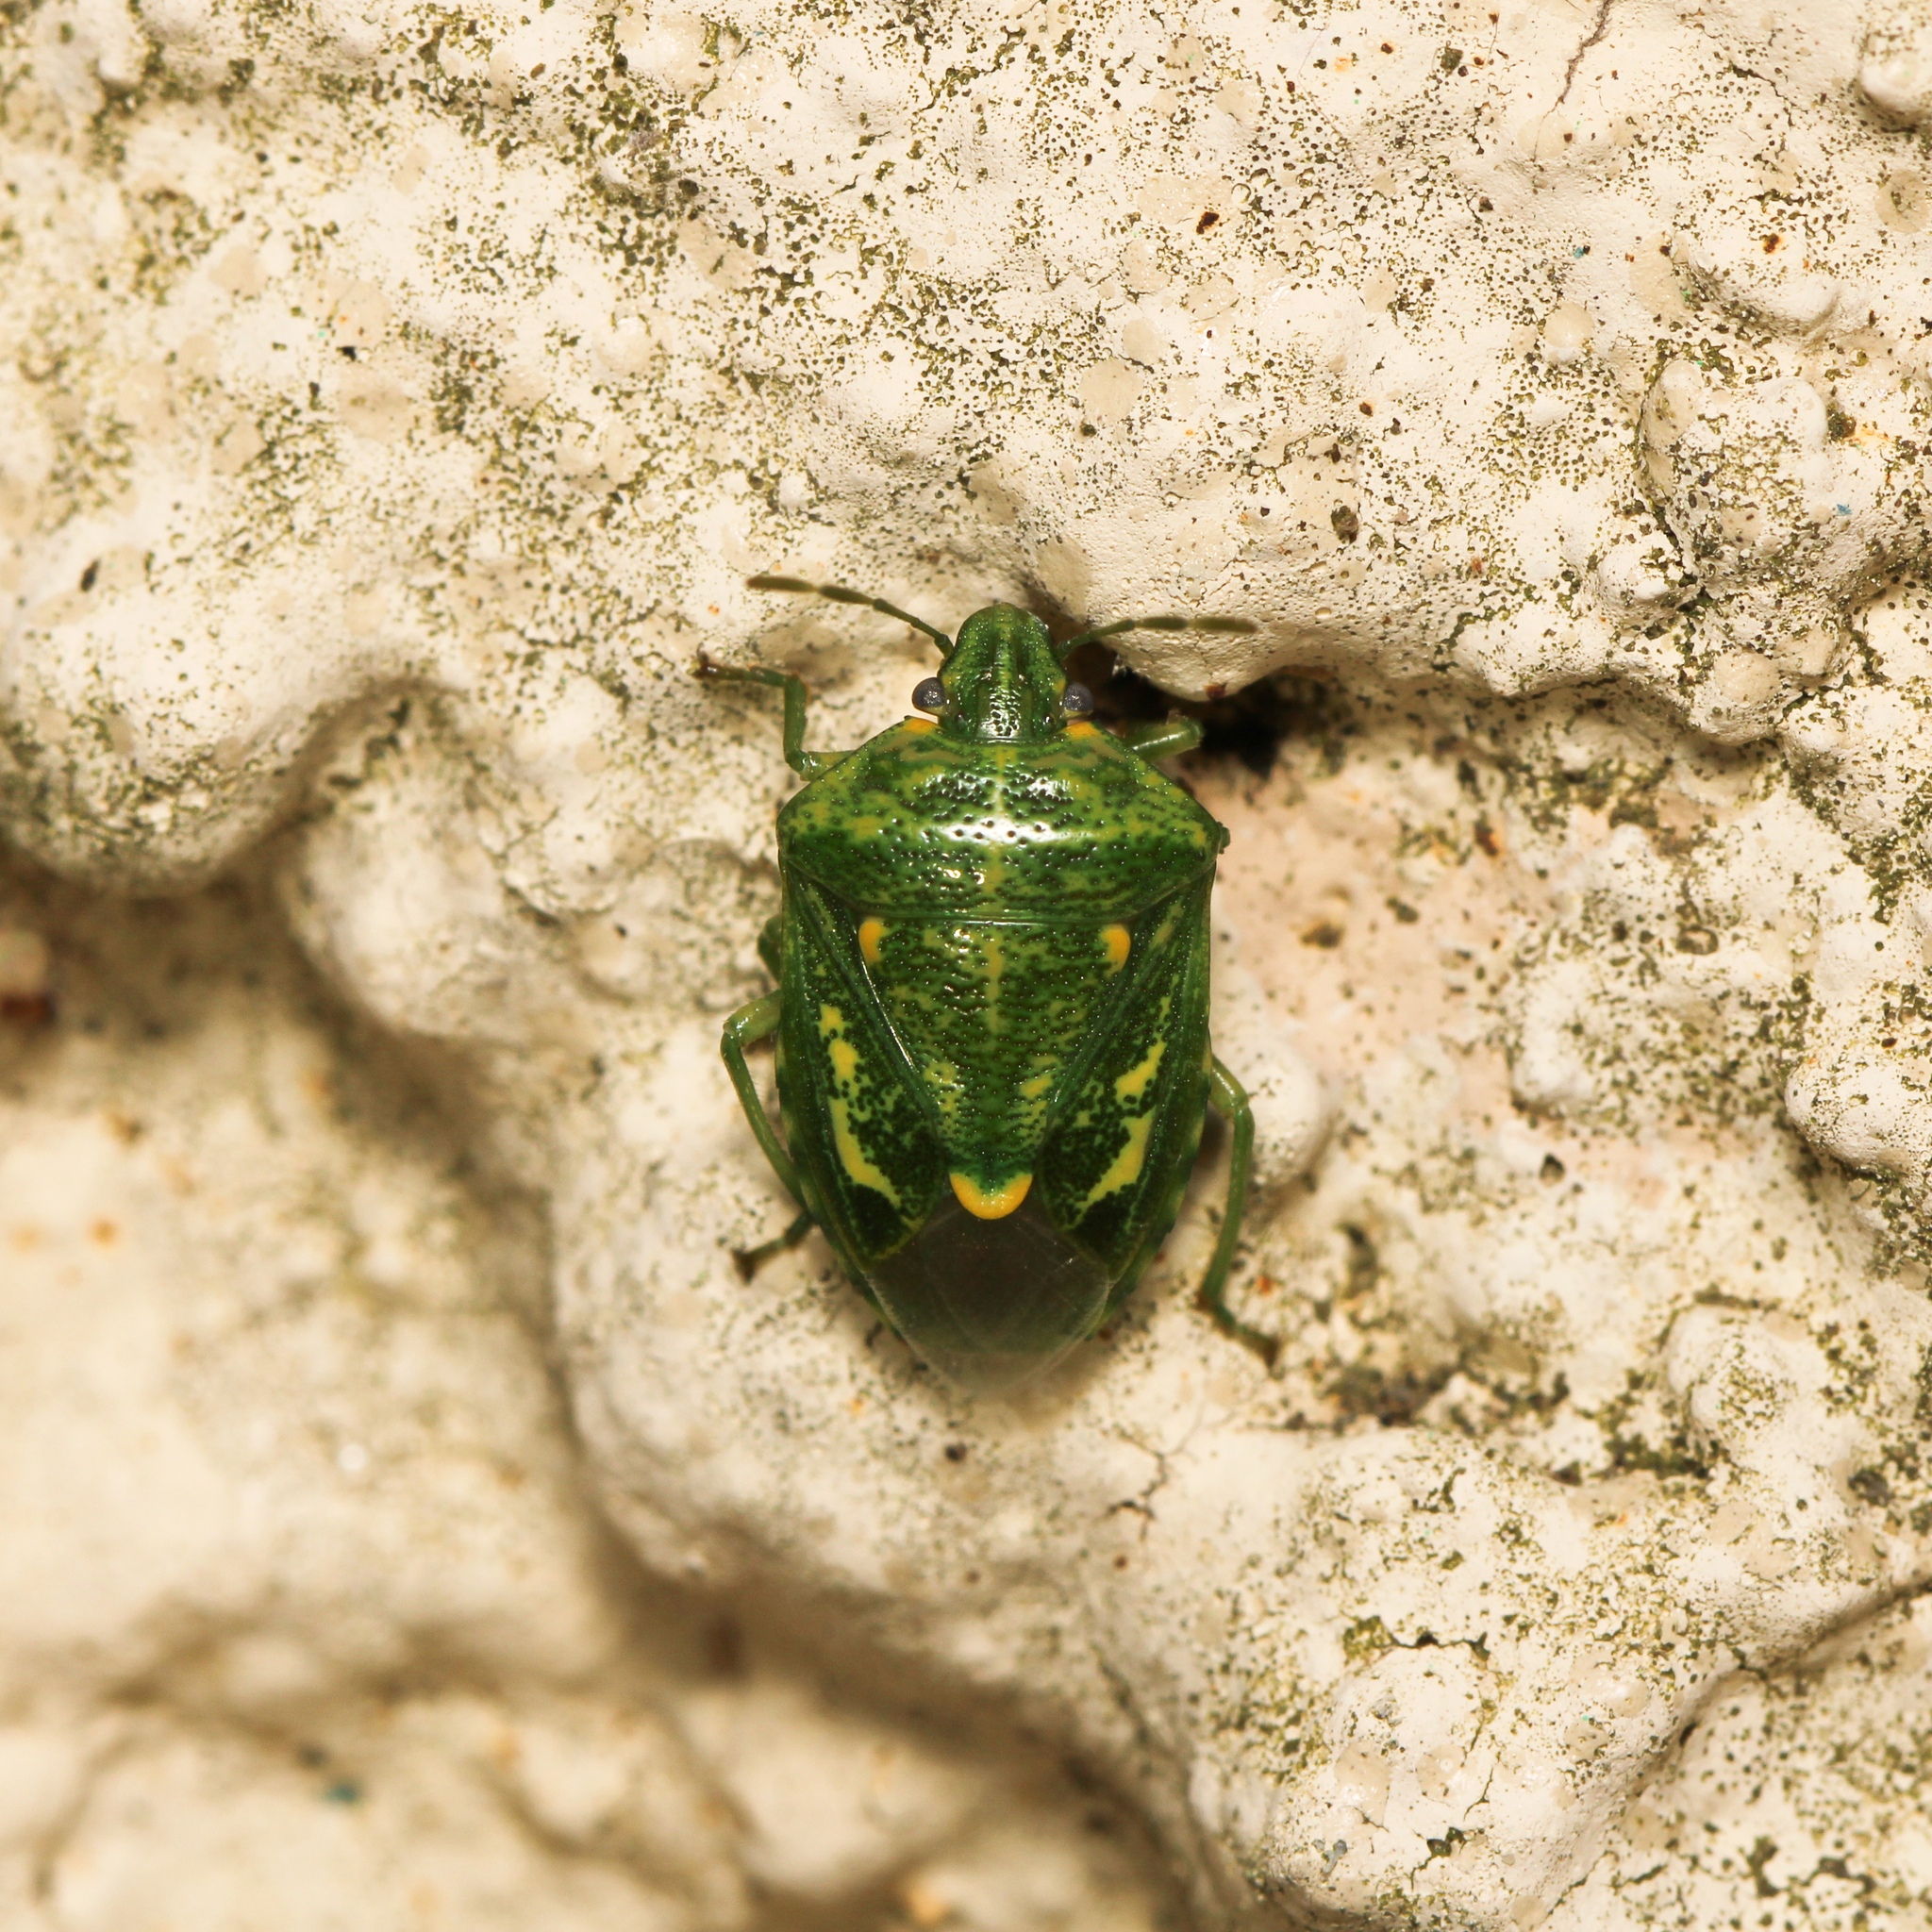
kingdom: Animalia
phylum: Arthropoda
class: Insecta
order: Hemiptera
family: Pentatomidae
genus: Banasa
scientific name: Banasa euchlora
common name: Cedar berry bug
